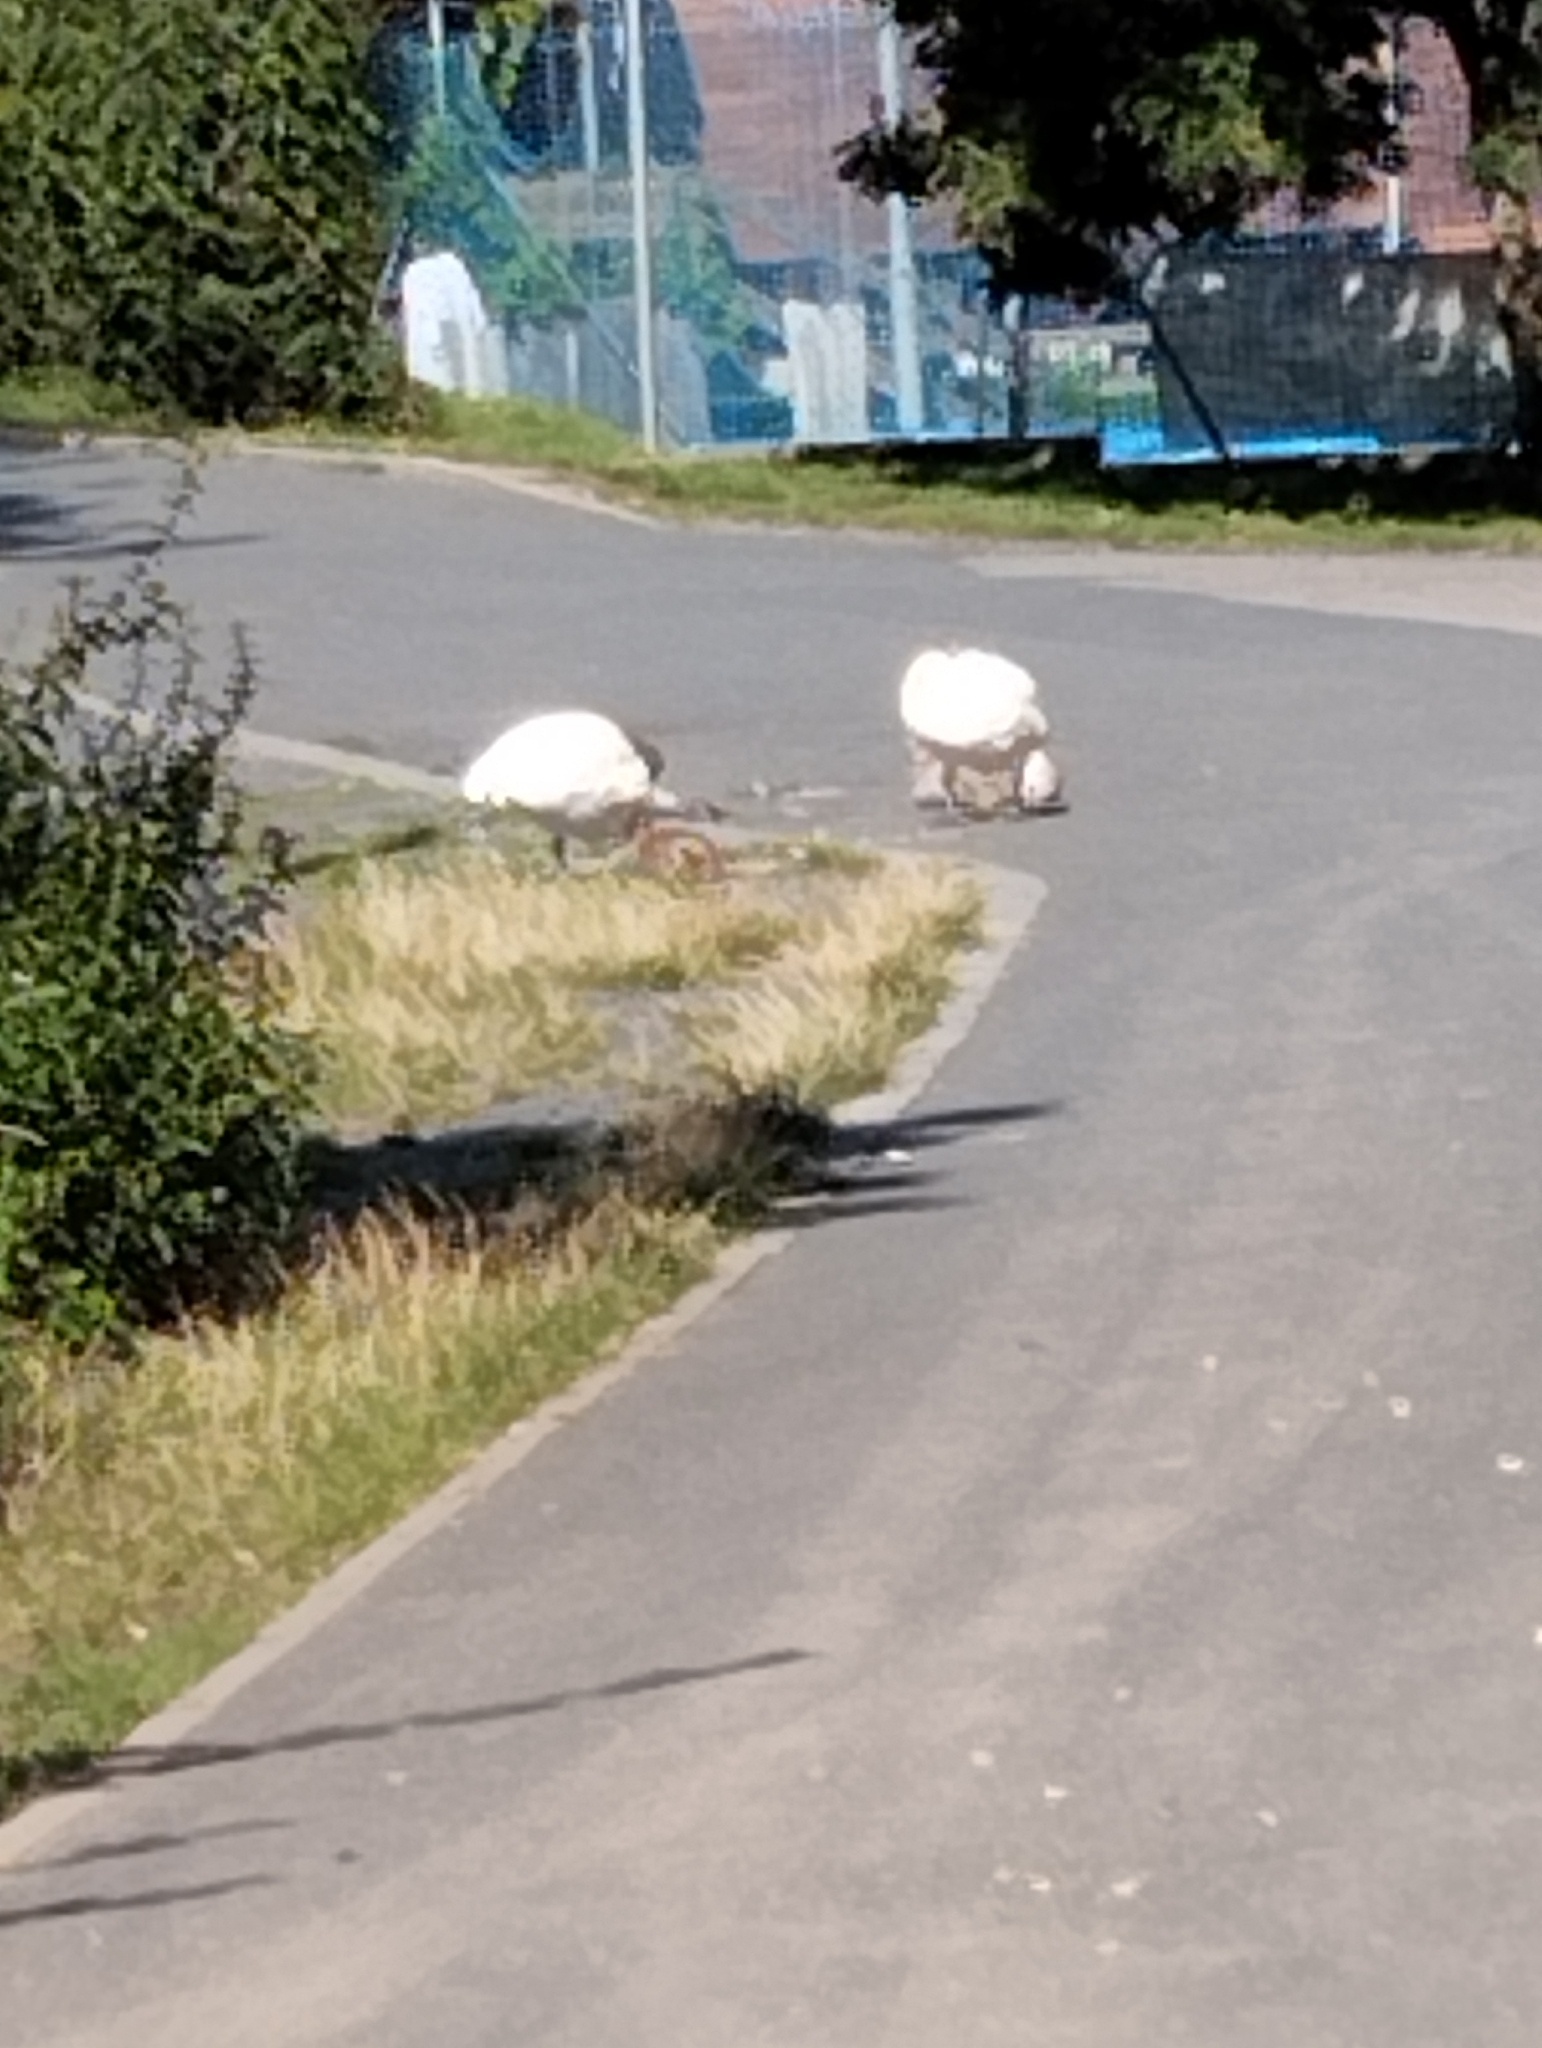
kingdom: Animalia
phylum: Chordata
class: Aves
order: Anseriformes
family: Anatidae
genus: Cygnus
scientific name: Cygnus olor
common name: Mute swan
